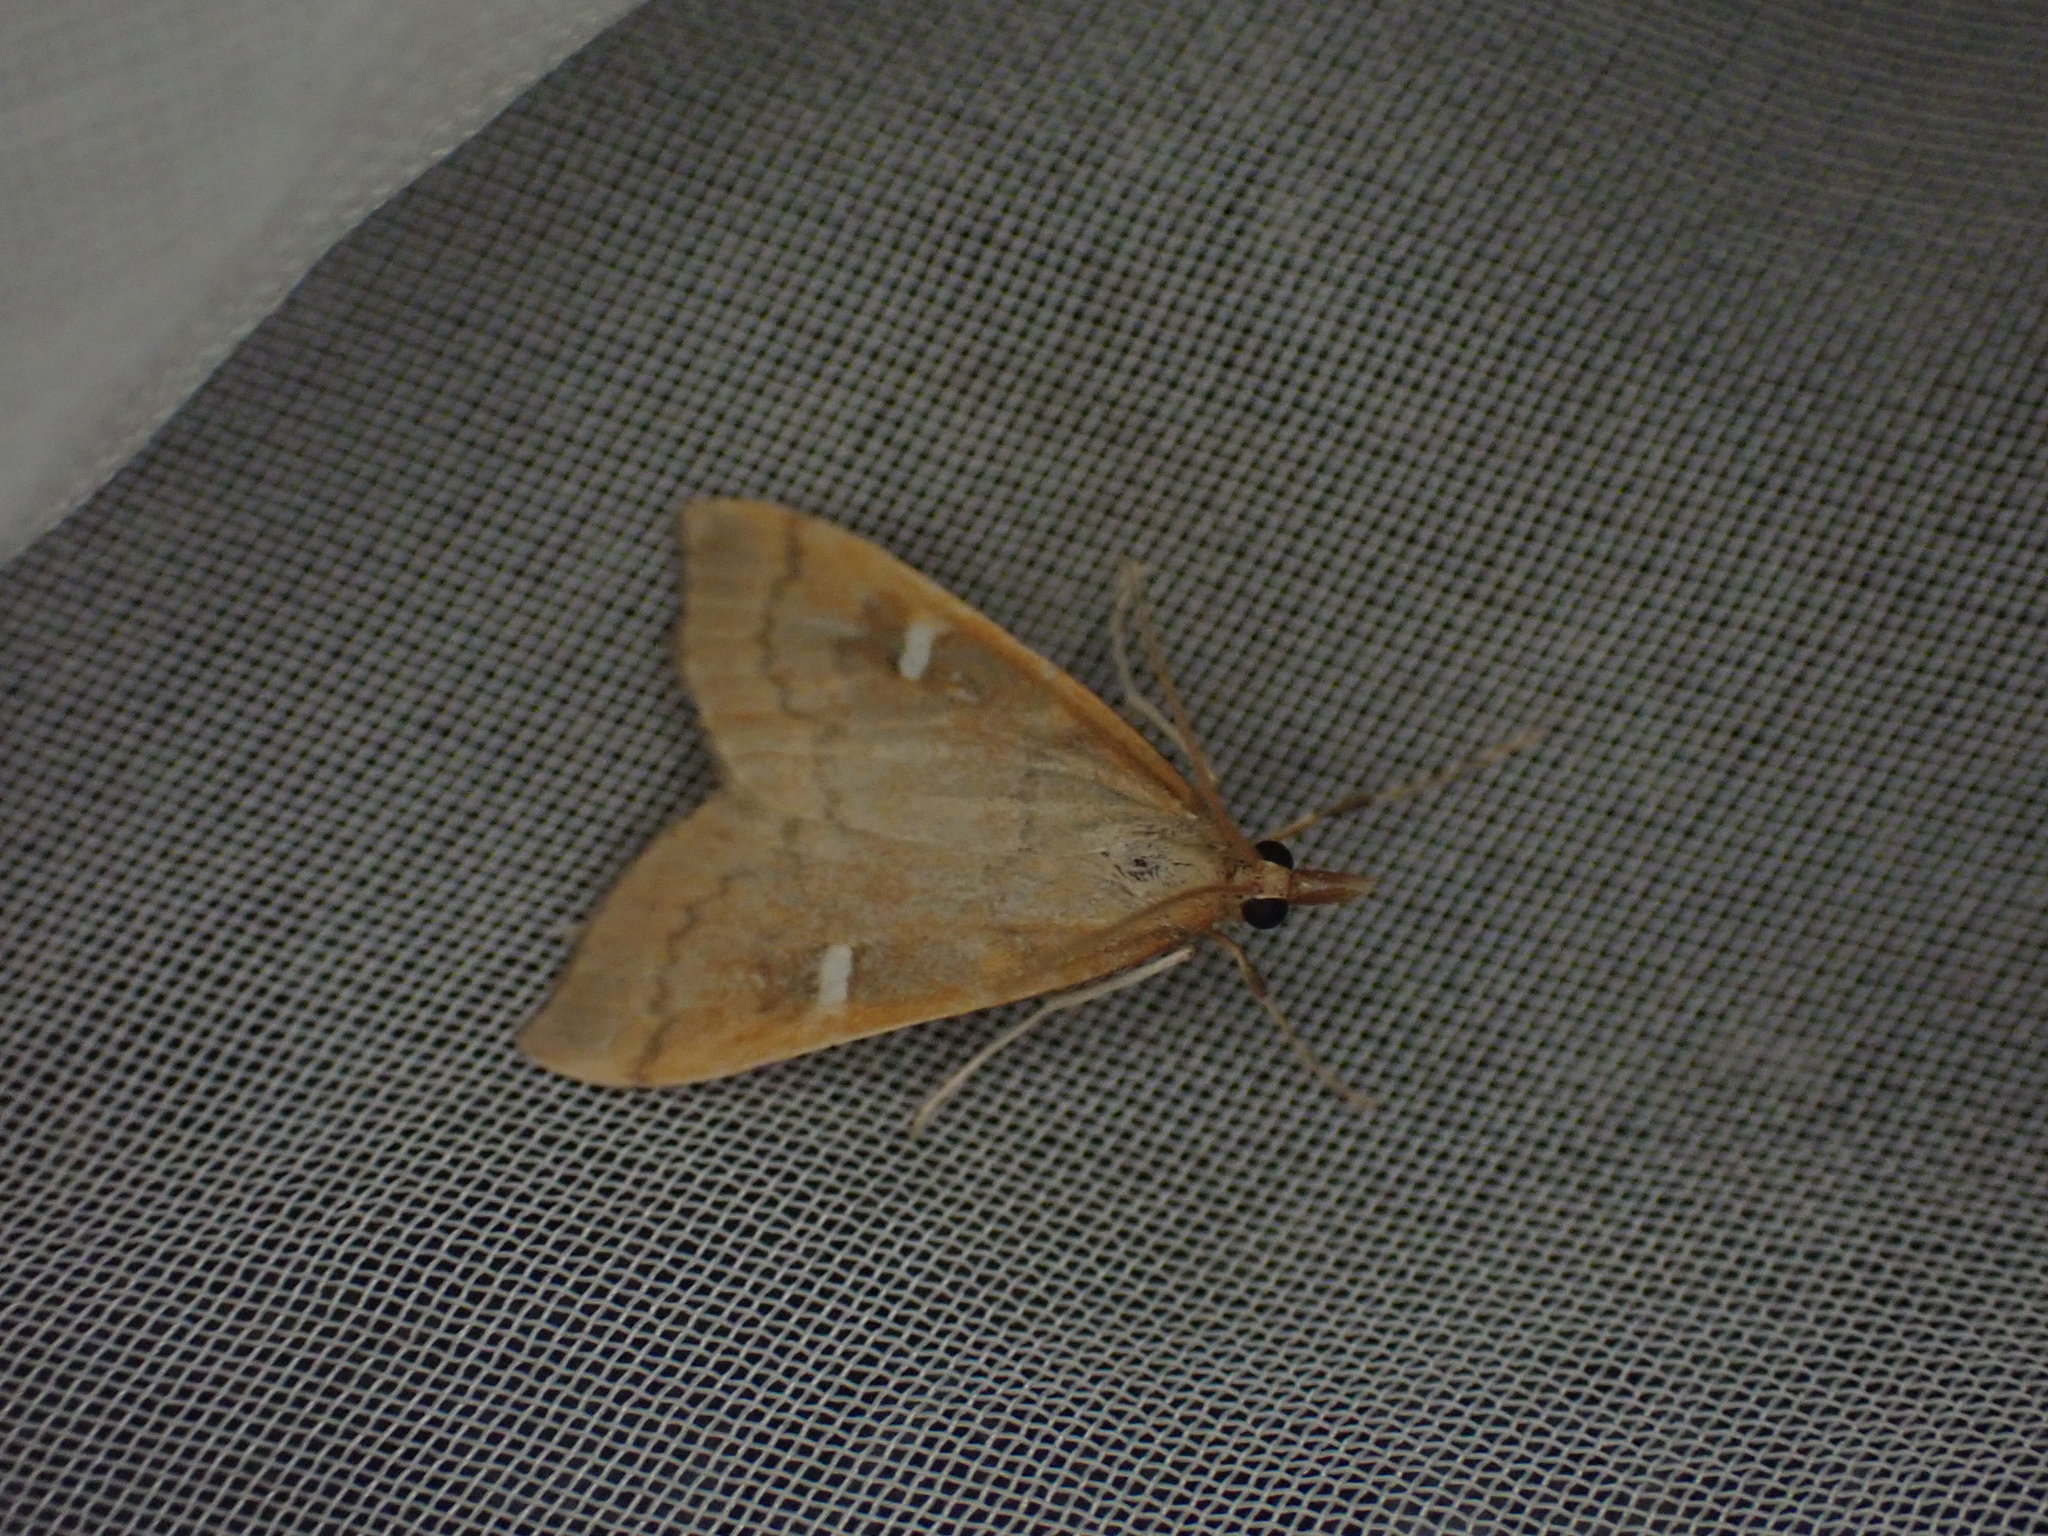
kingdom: Animalia
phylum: Arthropoda
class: Insecta
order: Lepidoptera
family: Crambidae
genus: Udea
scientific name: Udea notata
